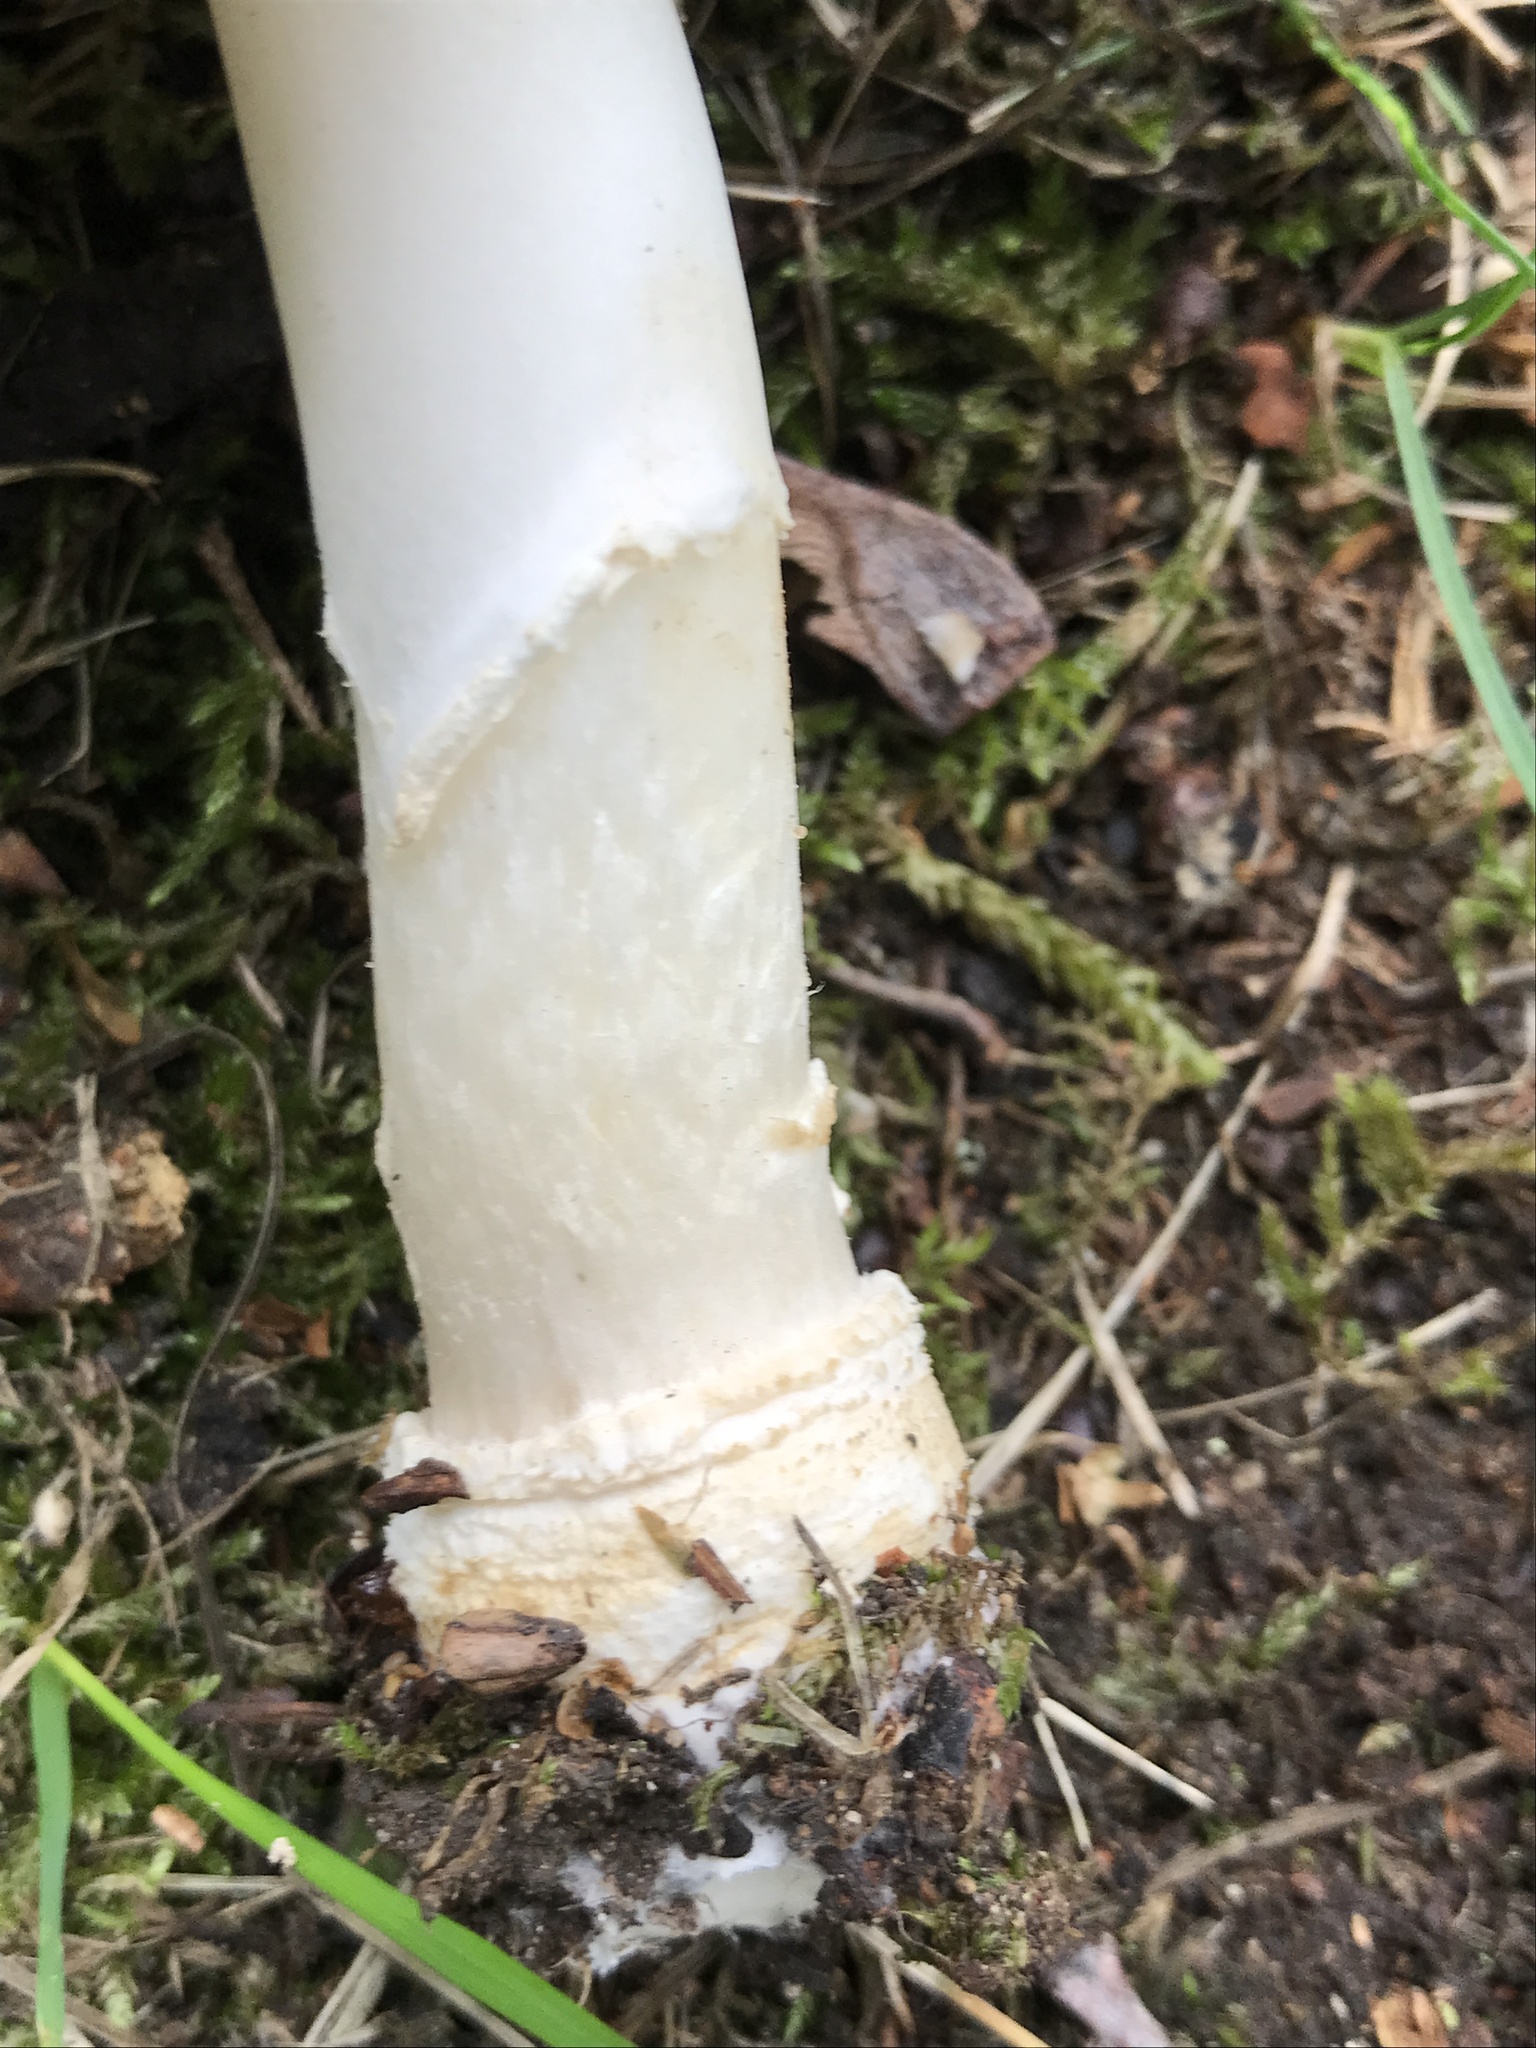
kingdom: Fungi
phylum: Basidiomycota
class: Agaricomycetes
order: Agaricales
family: Amanitaceae
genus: Amanita
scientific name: Amanita pantherina
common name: Panthercap
